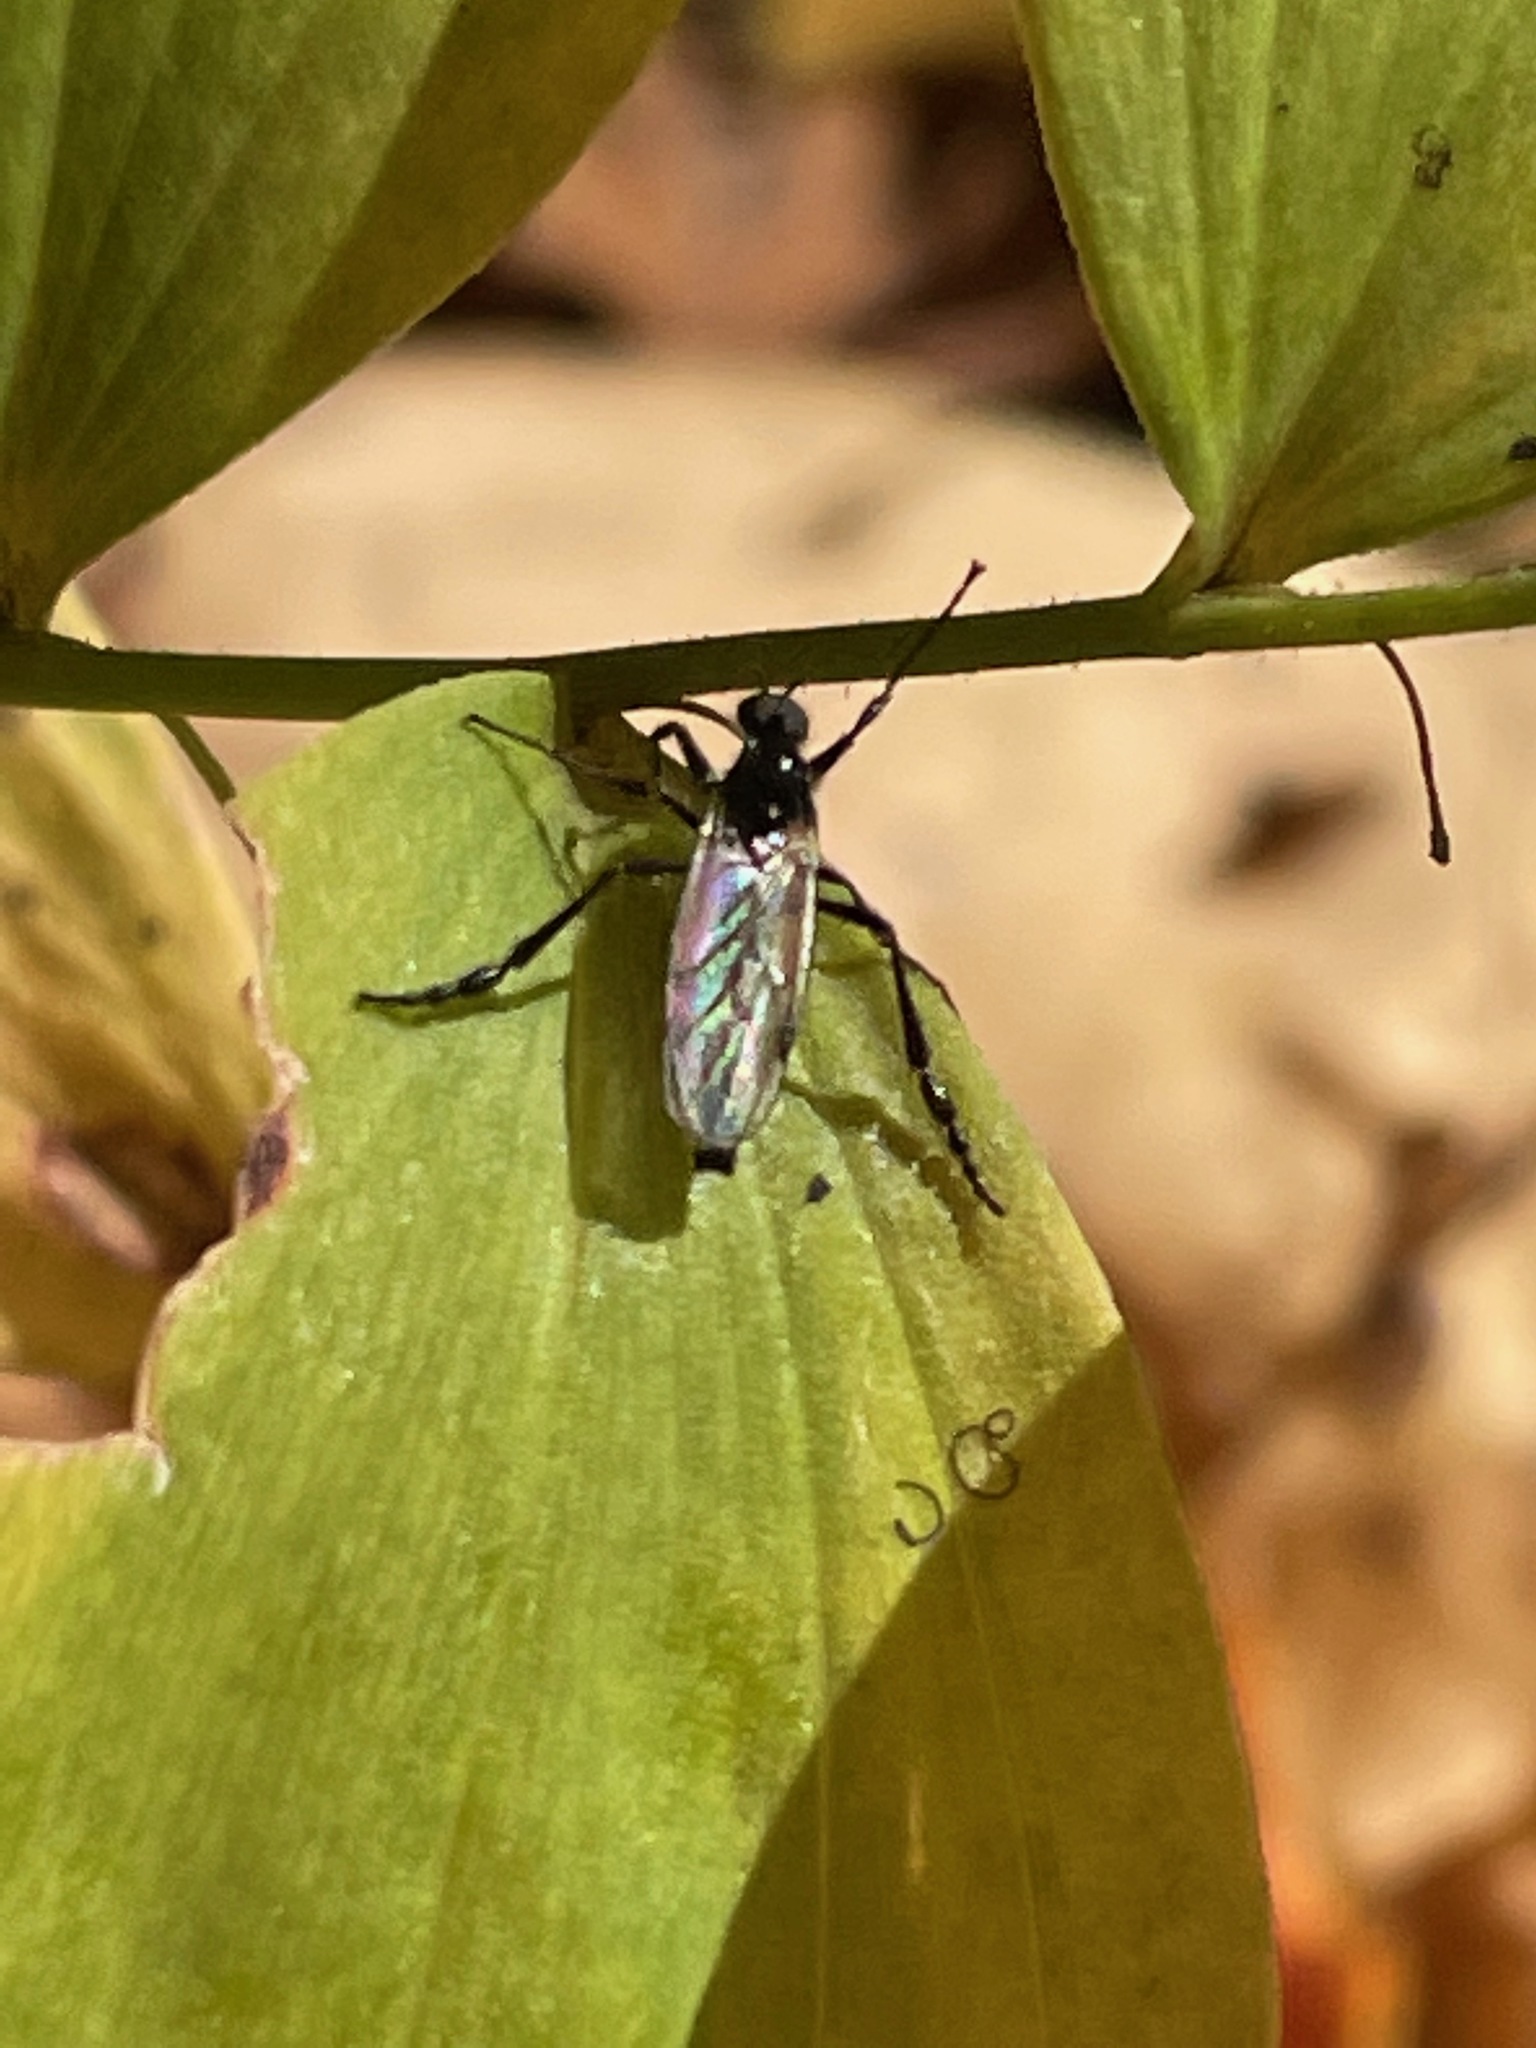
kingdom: Animalia
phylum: Arthropoda
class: Insecta
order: Diptera
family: Bibionidae
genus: Bibio
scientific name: Bibio
